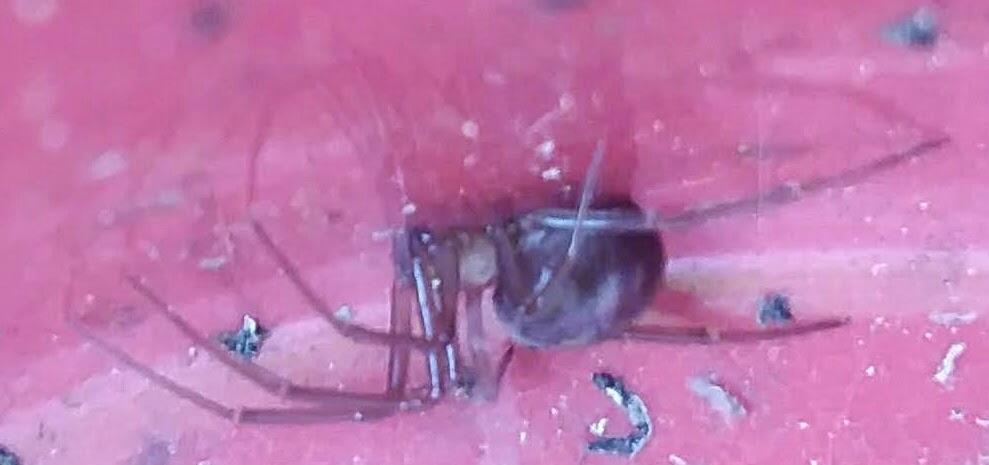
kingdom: Animalia
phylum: Arthropoda
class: Arachnida
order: Araneae
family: Theridiidae
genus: Steatoda
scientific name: Steatoda grossa
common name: False black widow
